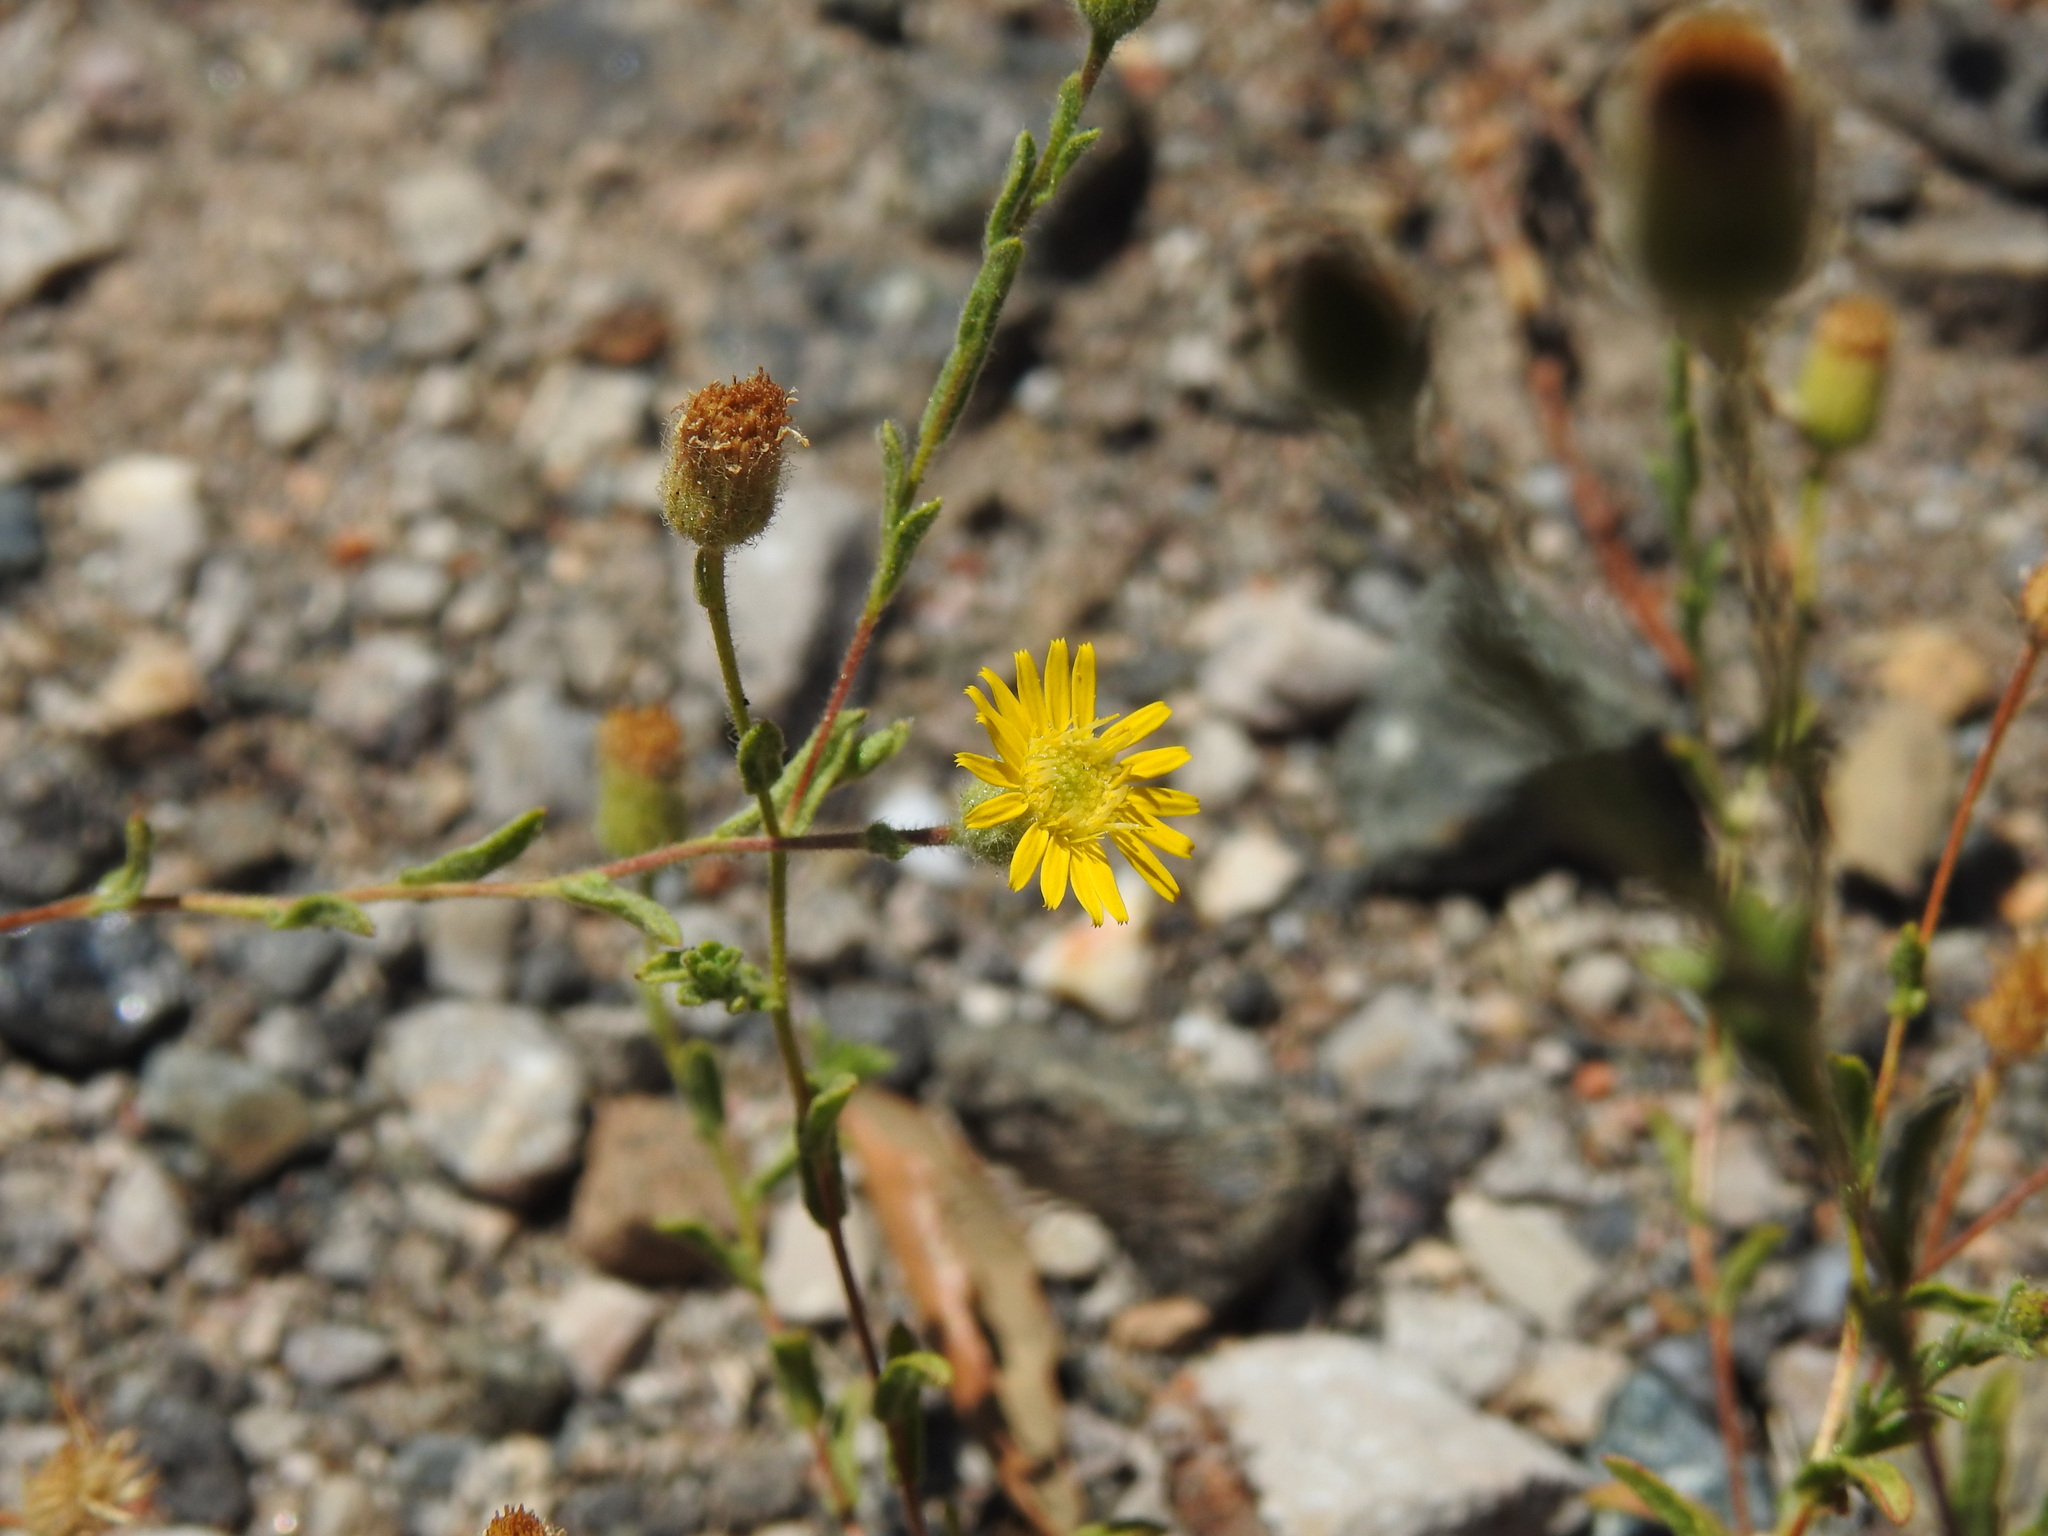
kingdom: Plantae
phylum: Tracheophyta
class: Magnoliopsida
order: Asterales
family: Asteraceae
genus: Pulicaria
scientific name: Pulicaria paludosa
